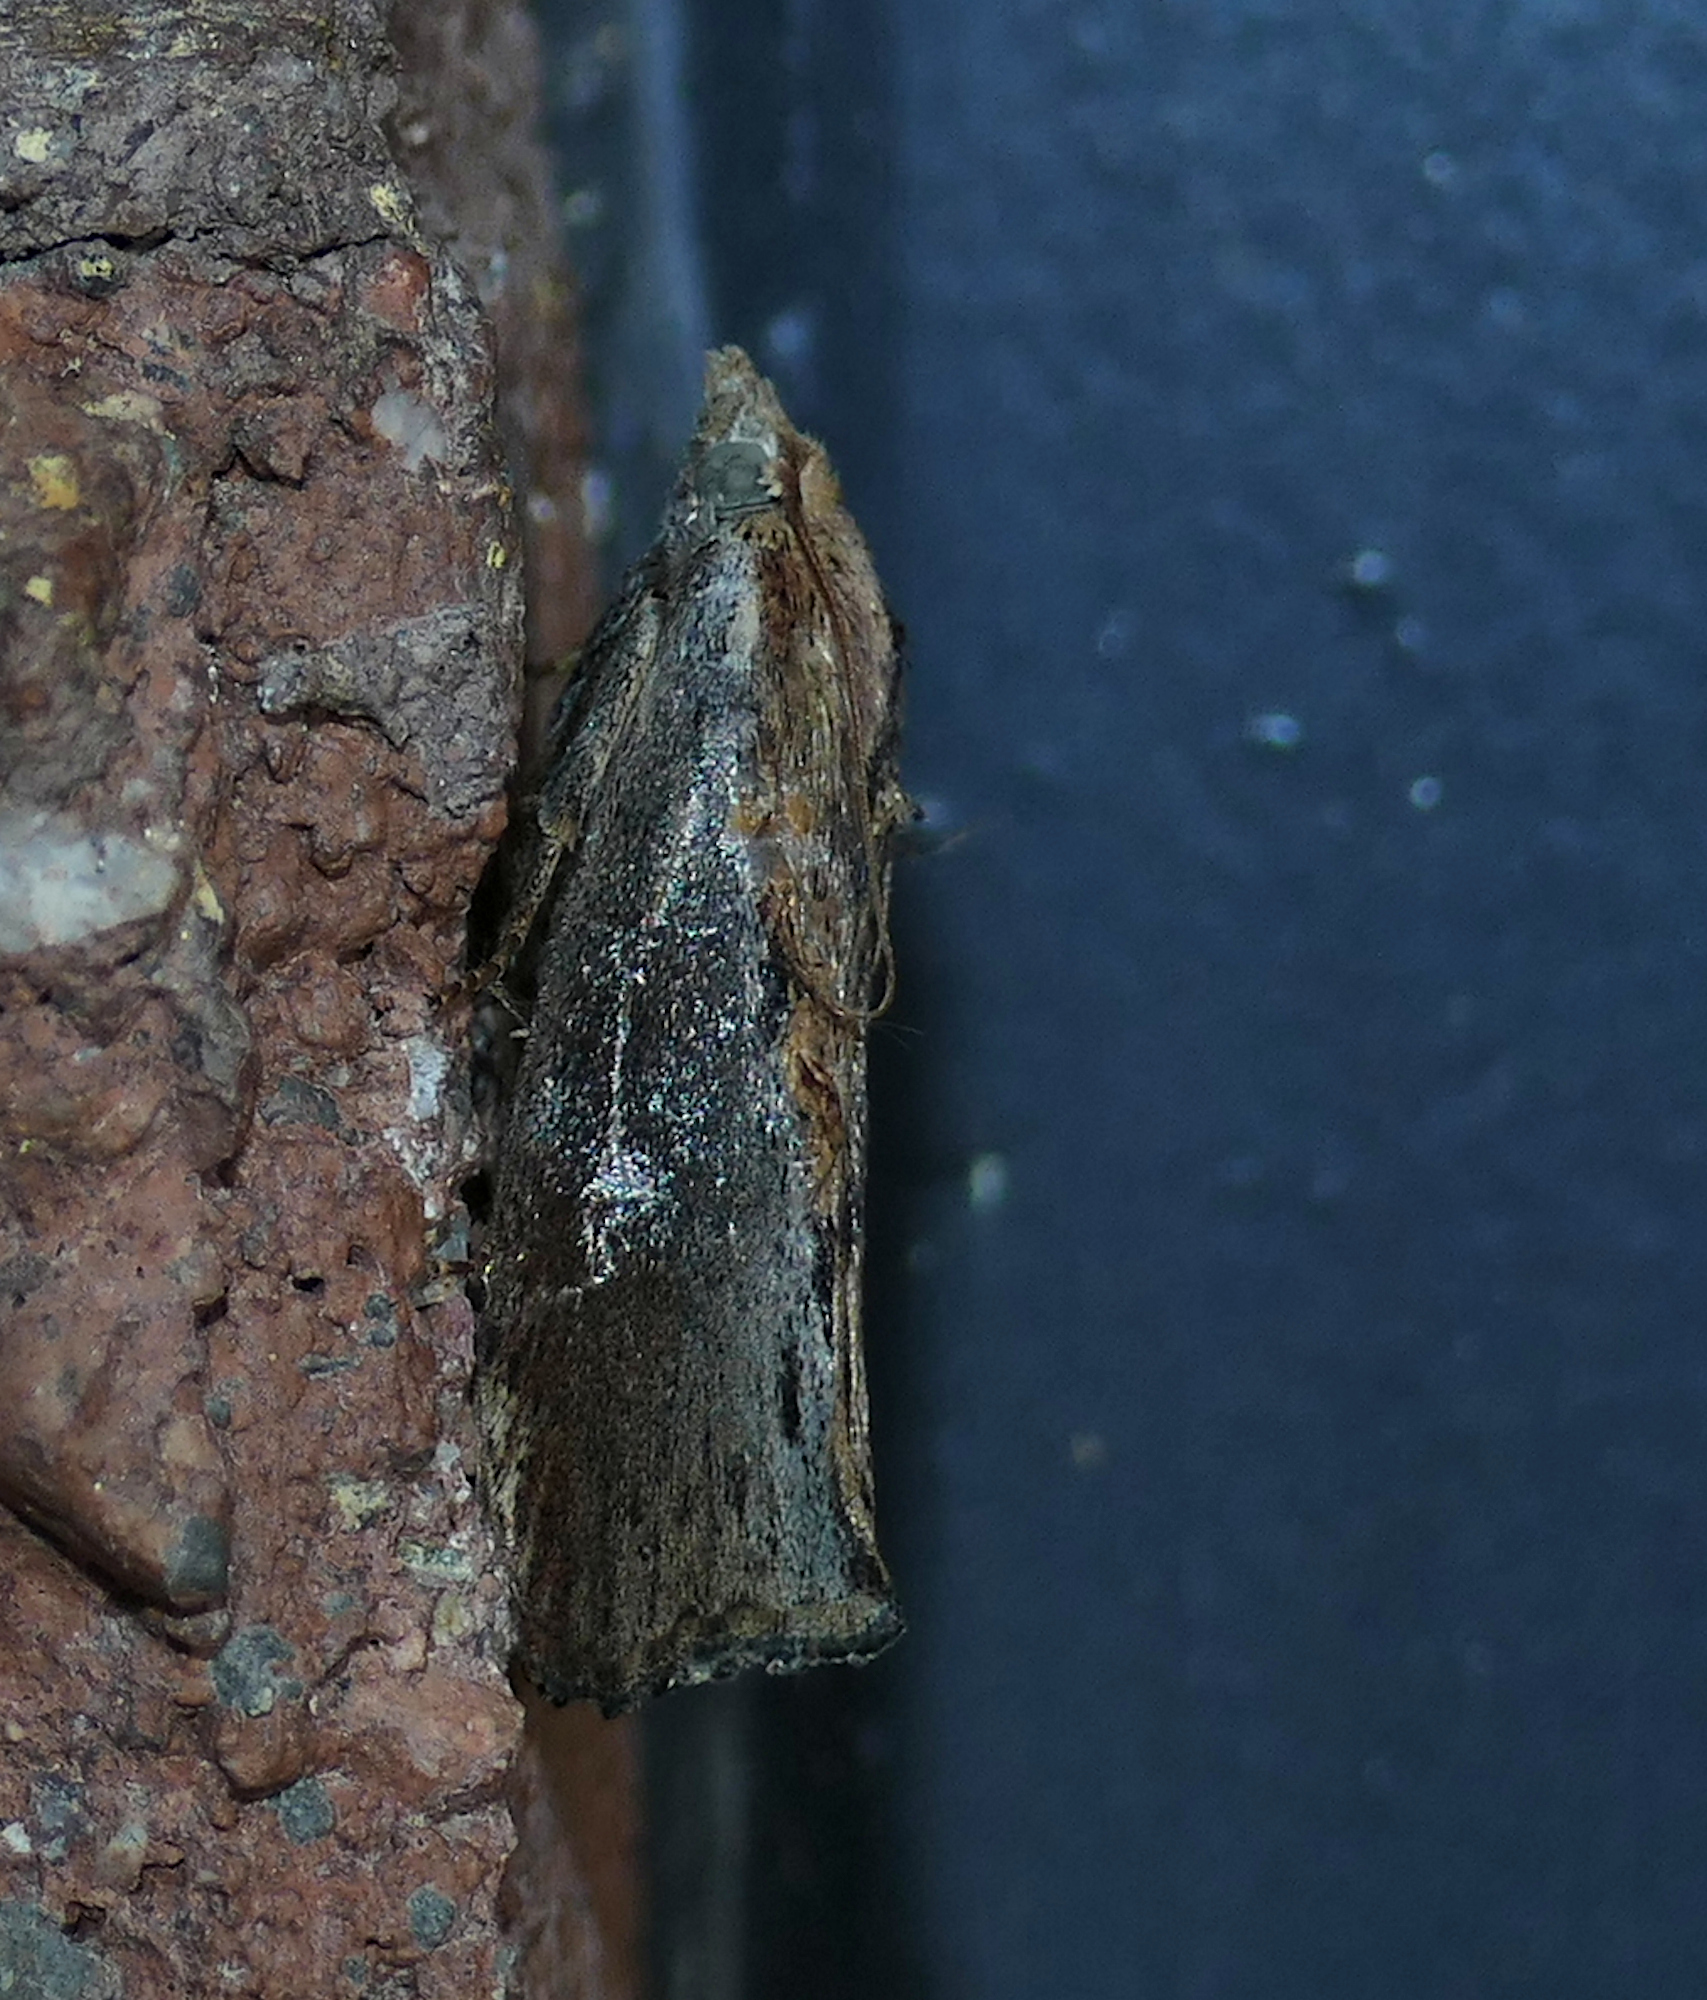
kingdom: Animalia
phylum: Arthropoda
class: Insecta
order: Lepidoptera
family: Pyralidae
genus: Galleria
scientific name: Galleria mellonella
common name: Greater wax moth
